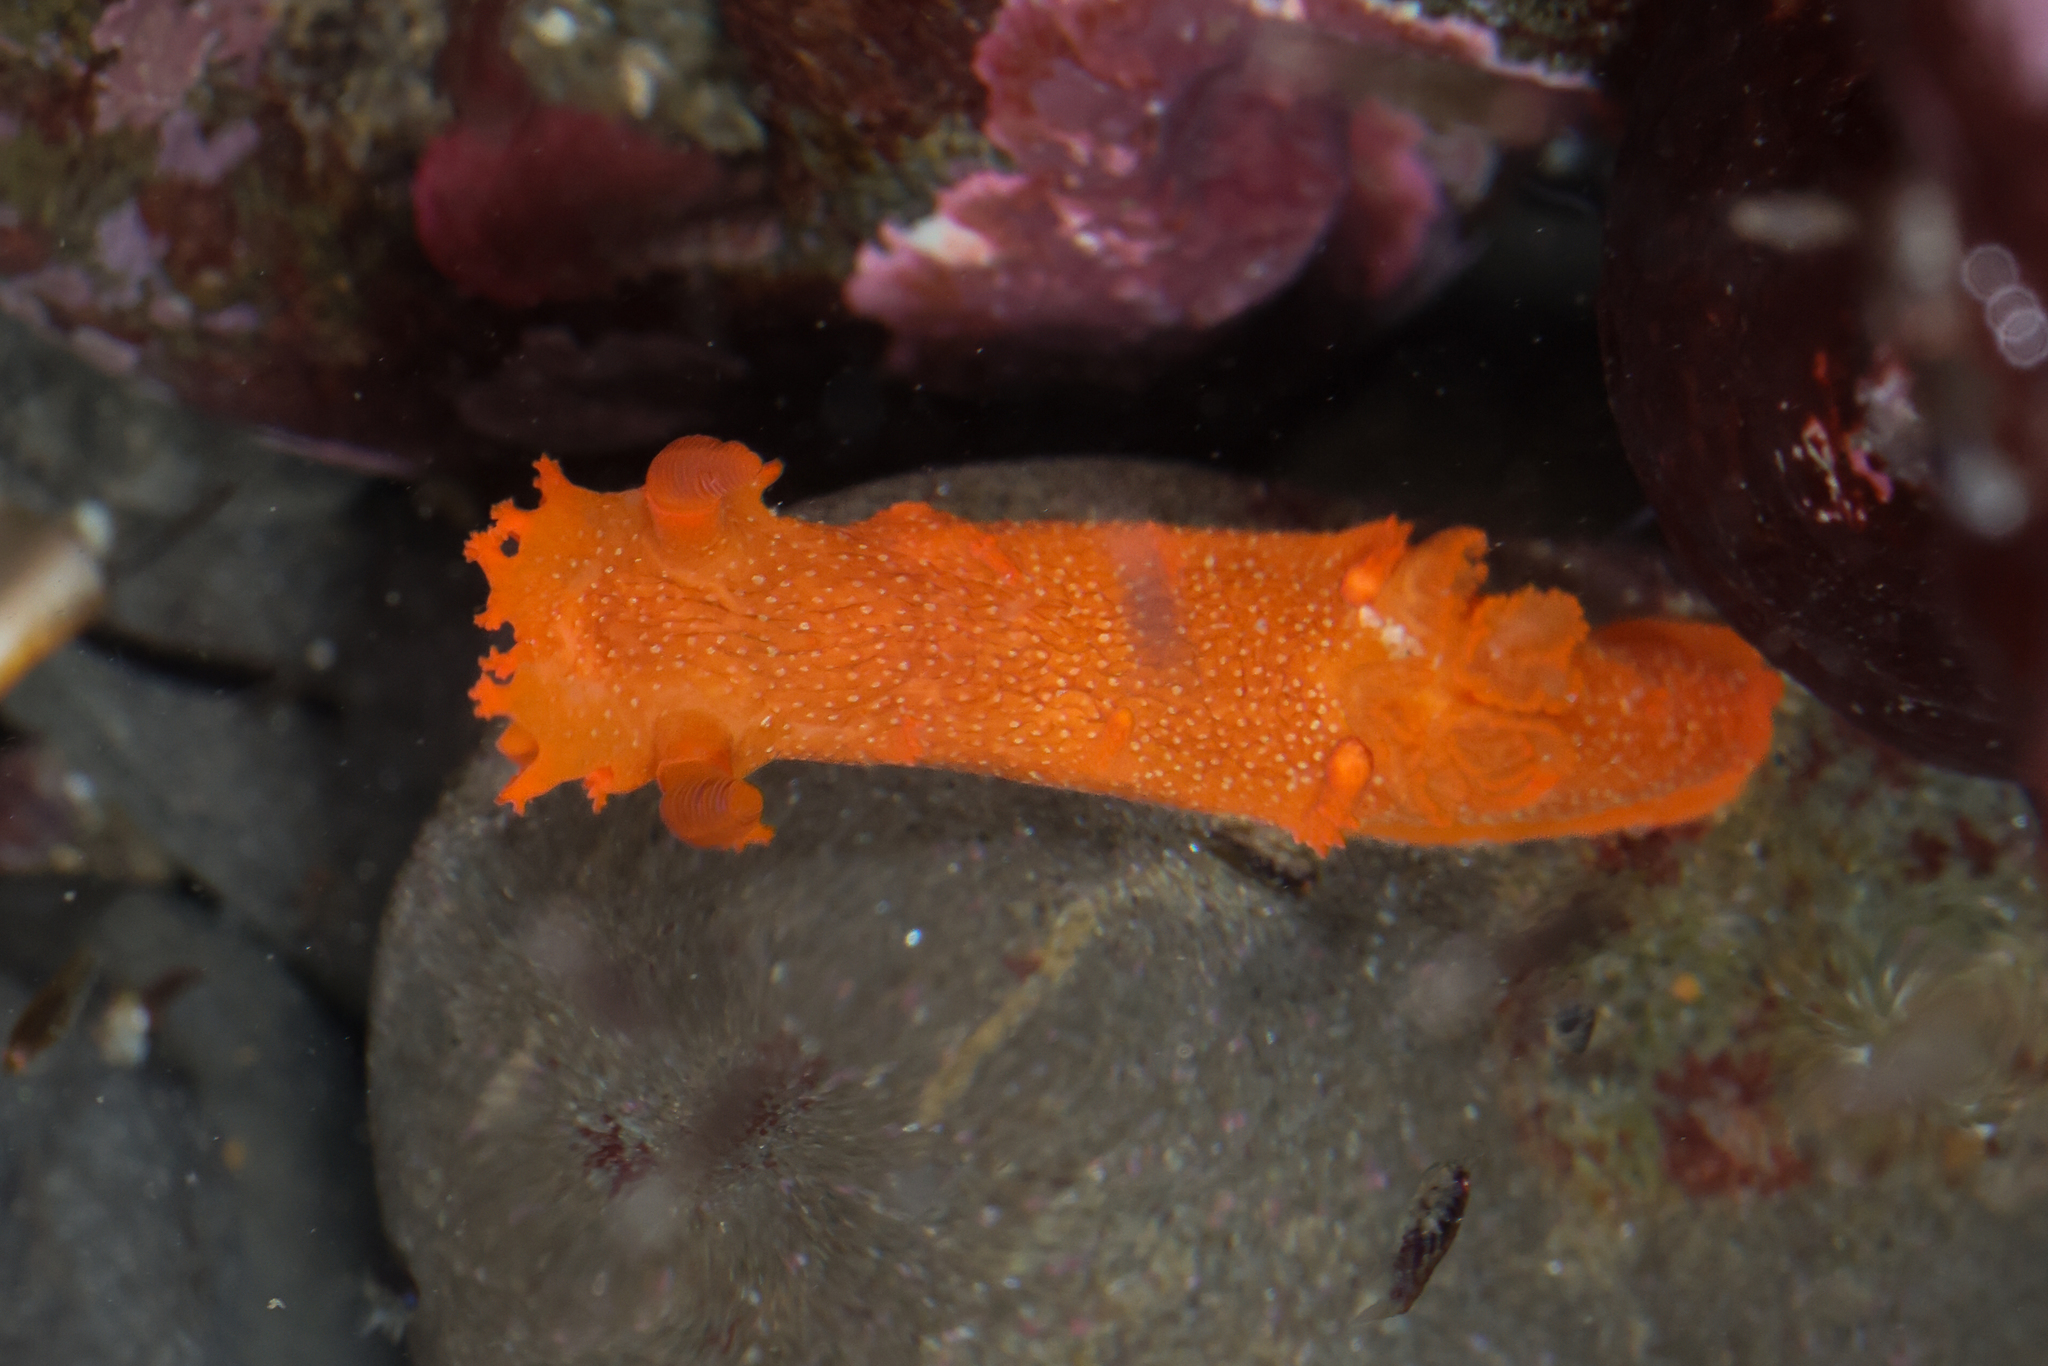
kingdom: Animalia
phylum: Mollusca
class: Gastropoda
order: Nudibranchia
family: Polyceridae
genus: Triopha
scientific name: Triopha maculata
